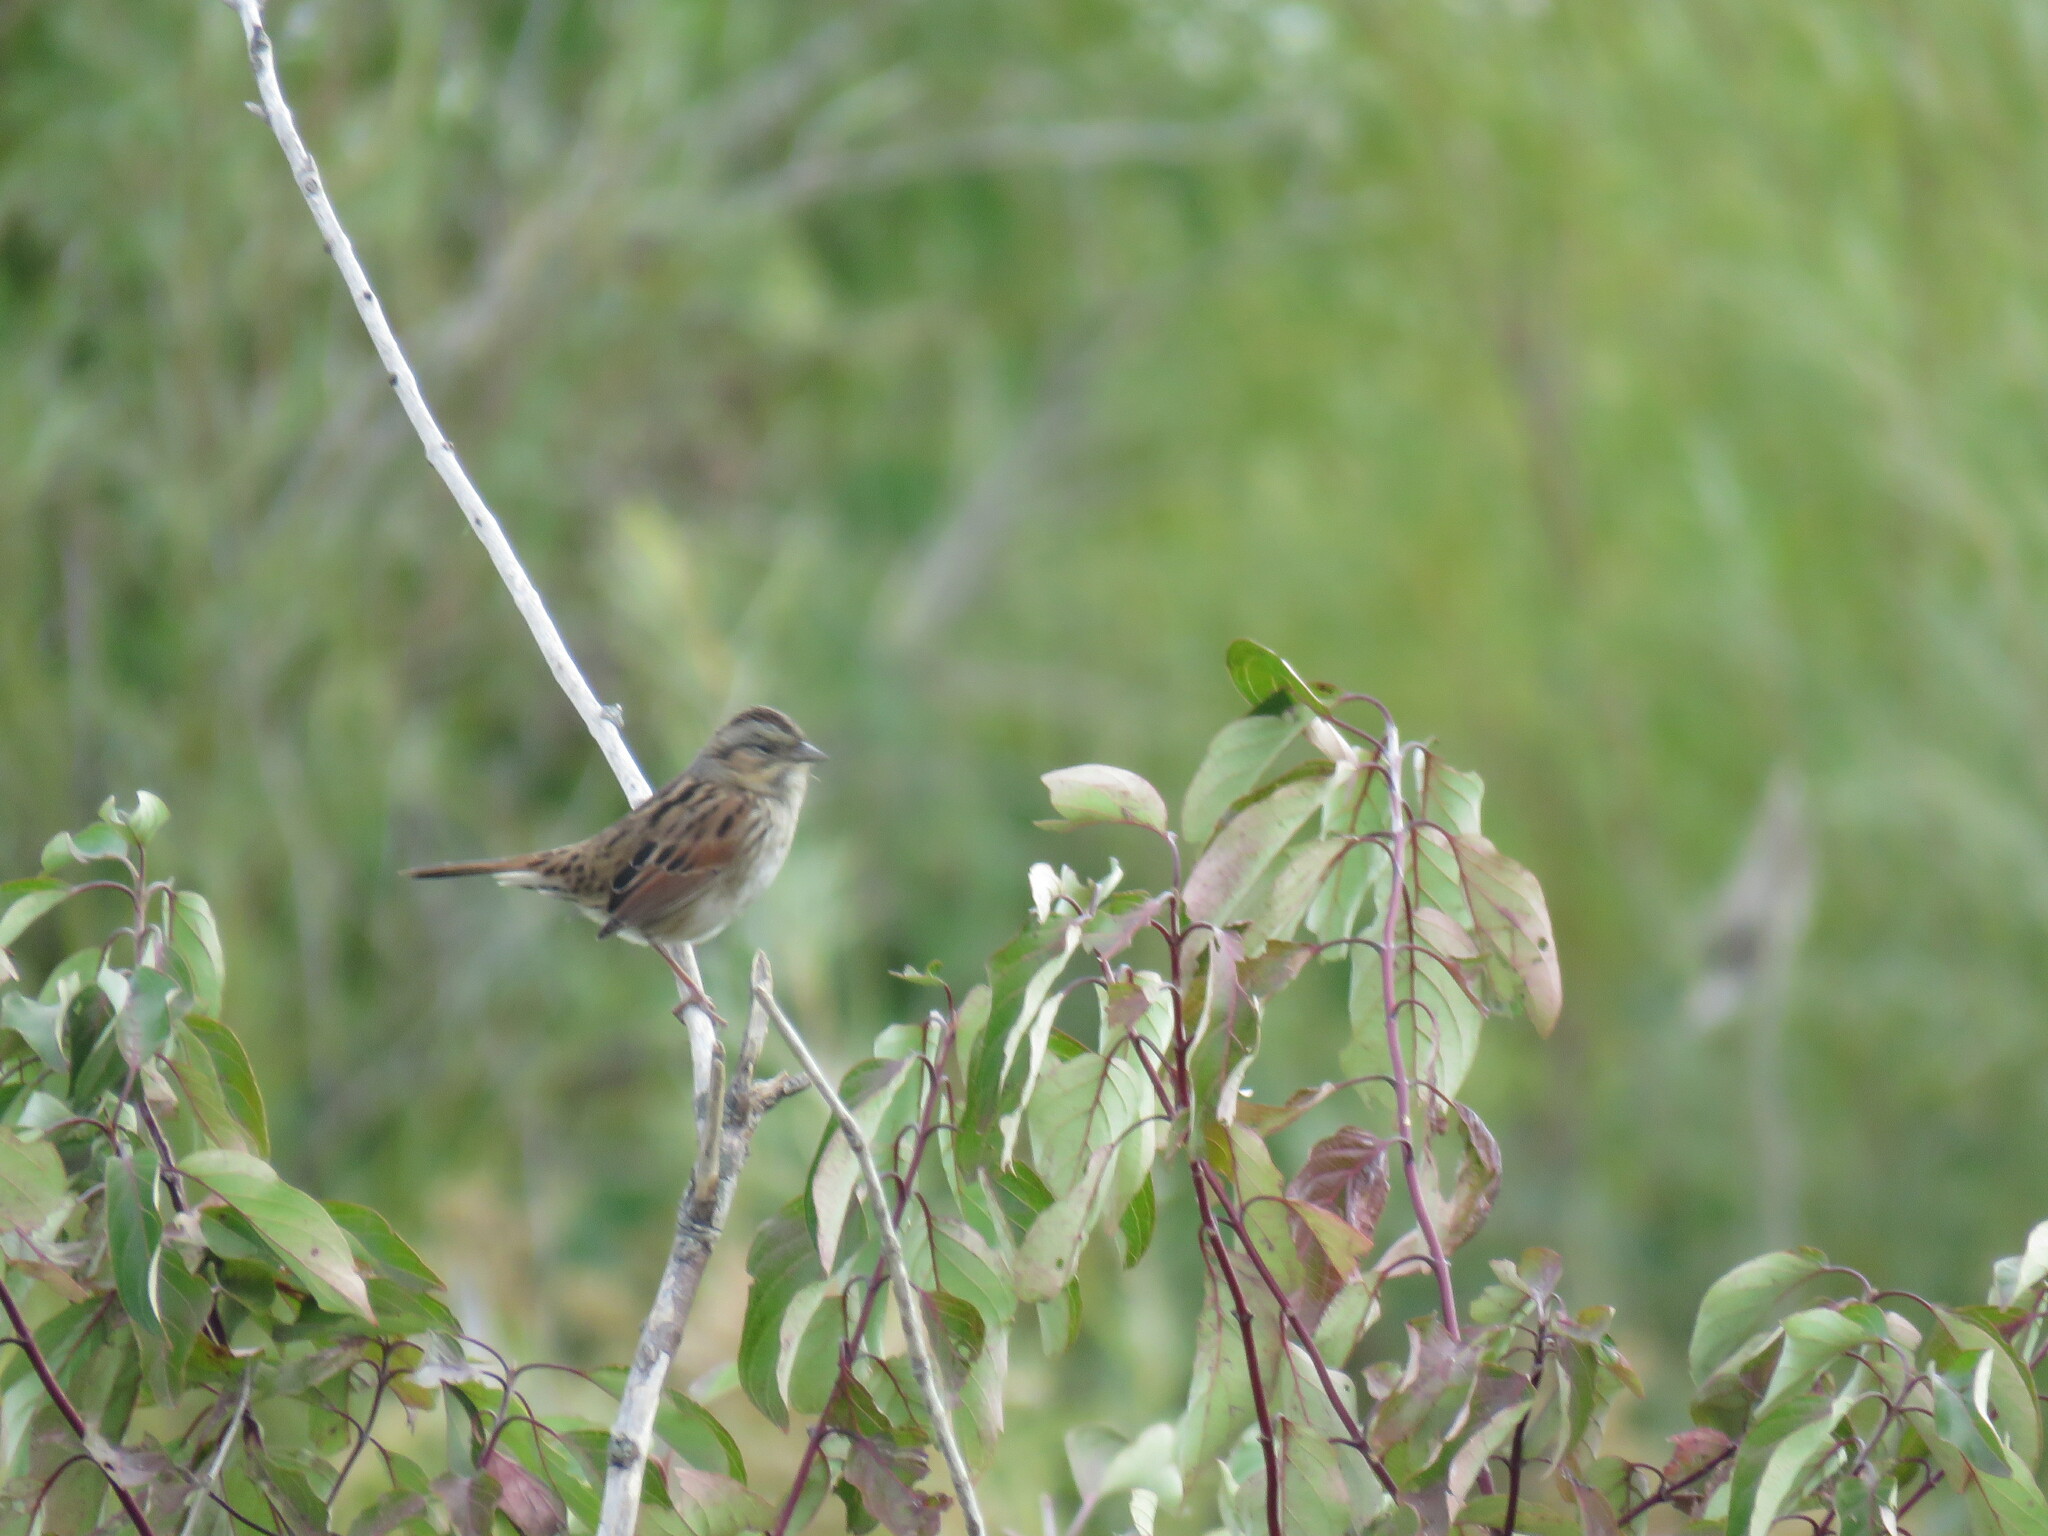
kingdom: Animalia
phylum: Chordata
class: Aves
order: Passeriformes
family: Passerellidae
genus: Melospiza
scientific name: Melospiza georgiana
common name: Swamp sparrow
